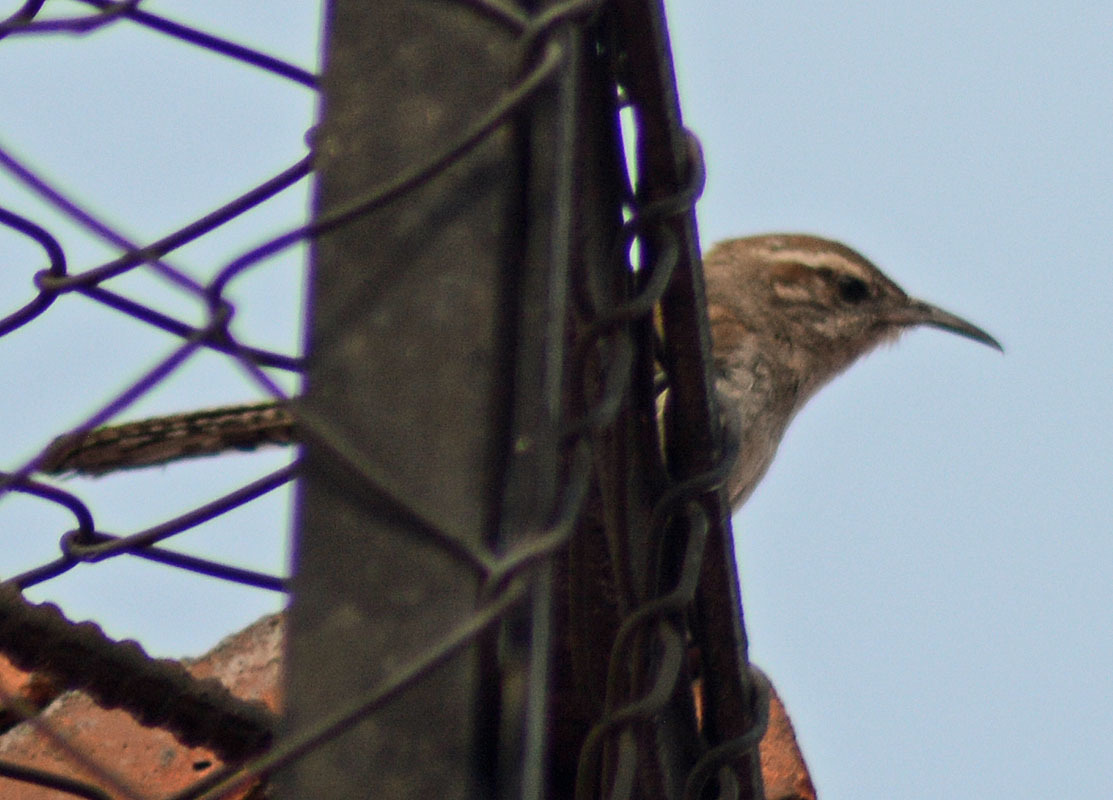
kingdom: Animalia
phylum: Chordata
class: Aves
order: Passeriformes
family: Troglodytidae
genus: Thryomanes
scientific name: Thryomanes bewickii
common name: Bewick's wren
